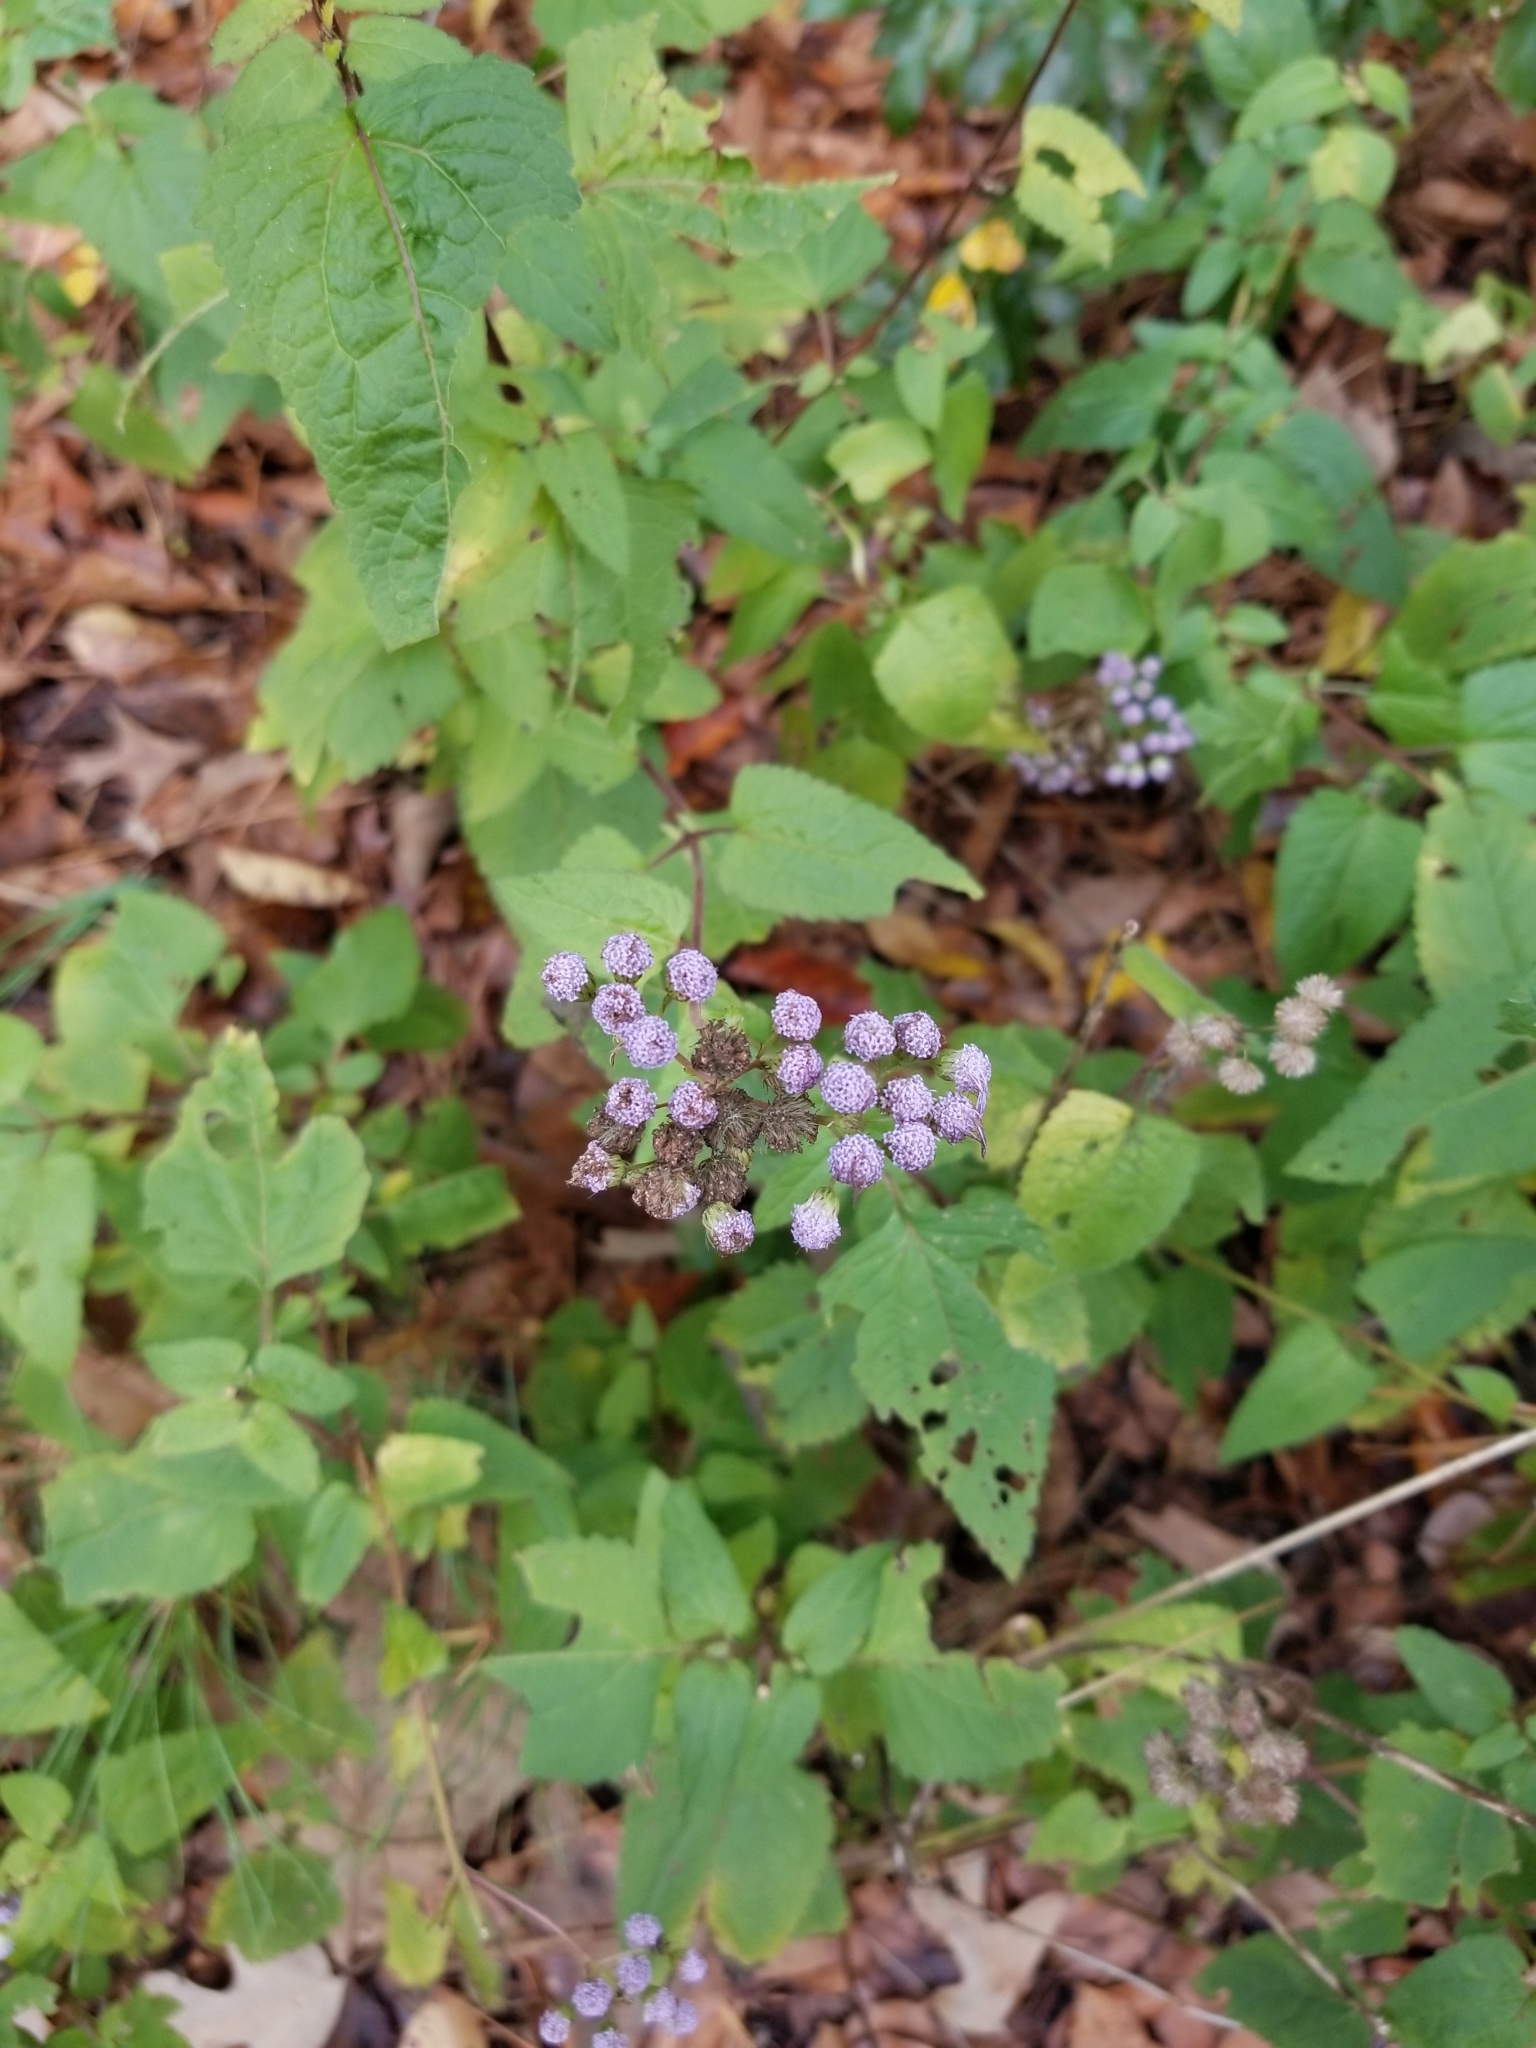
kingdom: Plantae
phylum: Tracheophyta
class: Magnoliopsida
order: Asterales
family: Asteraceae
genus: Conoclinium
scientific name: Conoclinium coelestinum
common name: Blue mistflower
